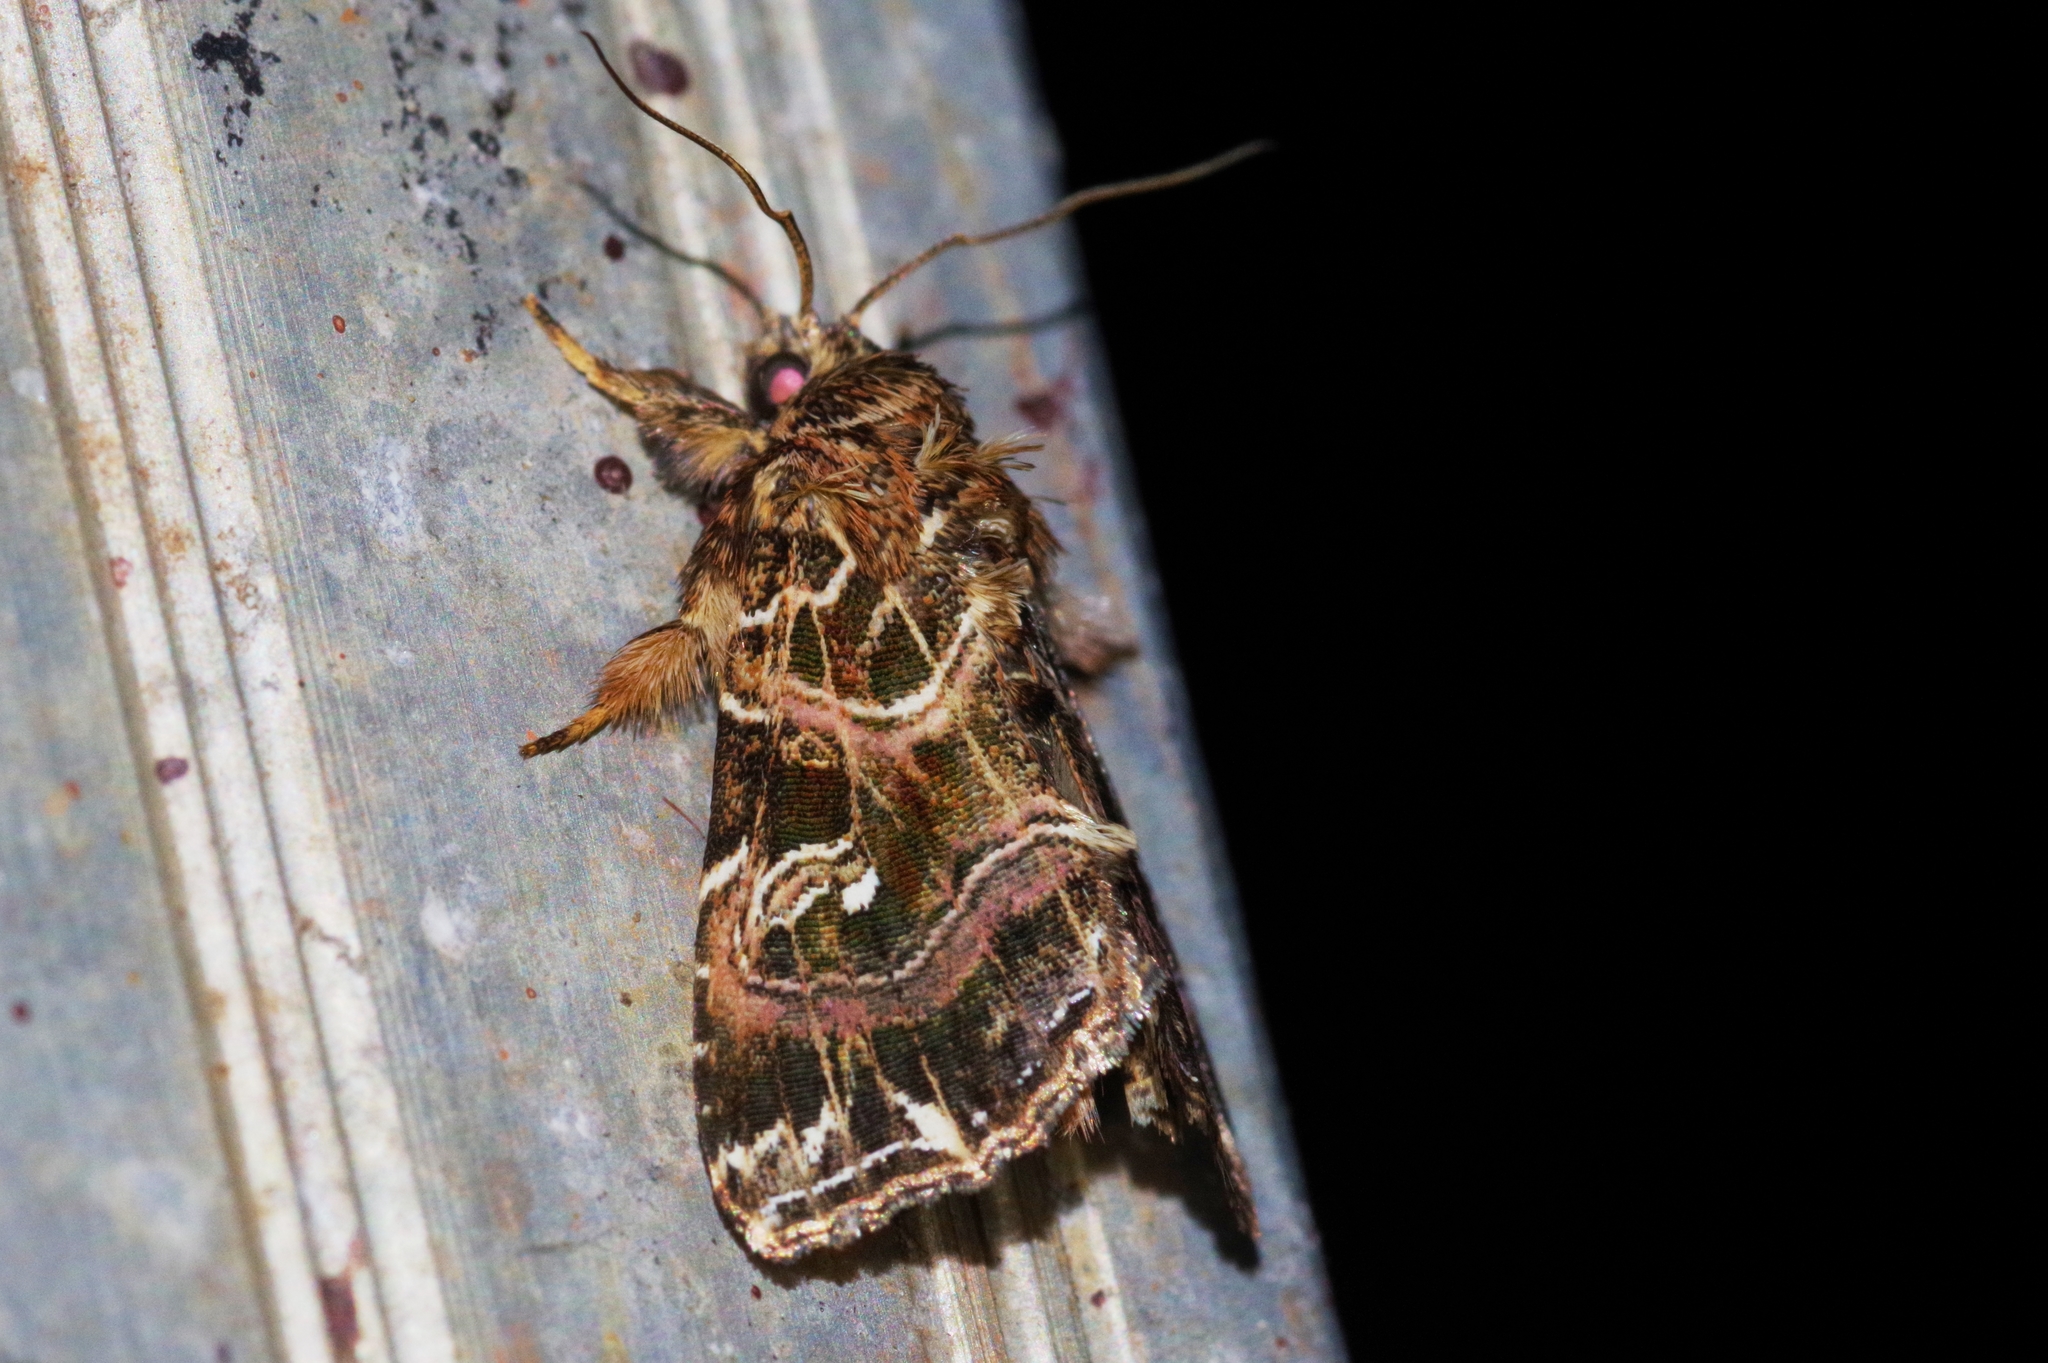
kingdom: Animalia
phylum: Arthropoda
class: Insecta
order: Lepidoptera
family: Noctuidae
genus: Callopistria
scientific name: Callopistria duplicans
